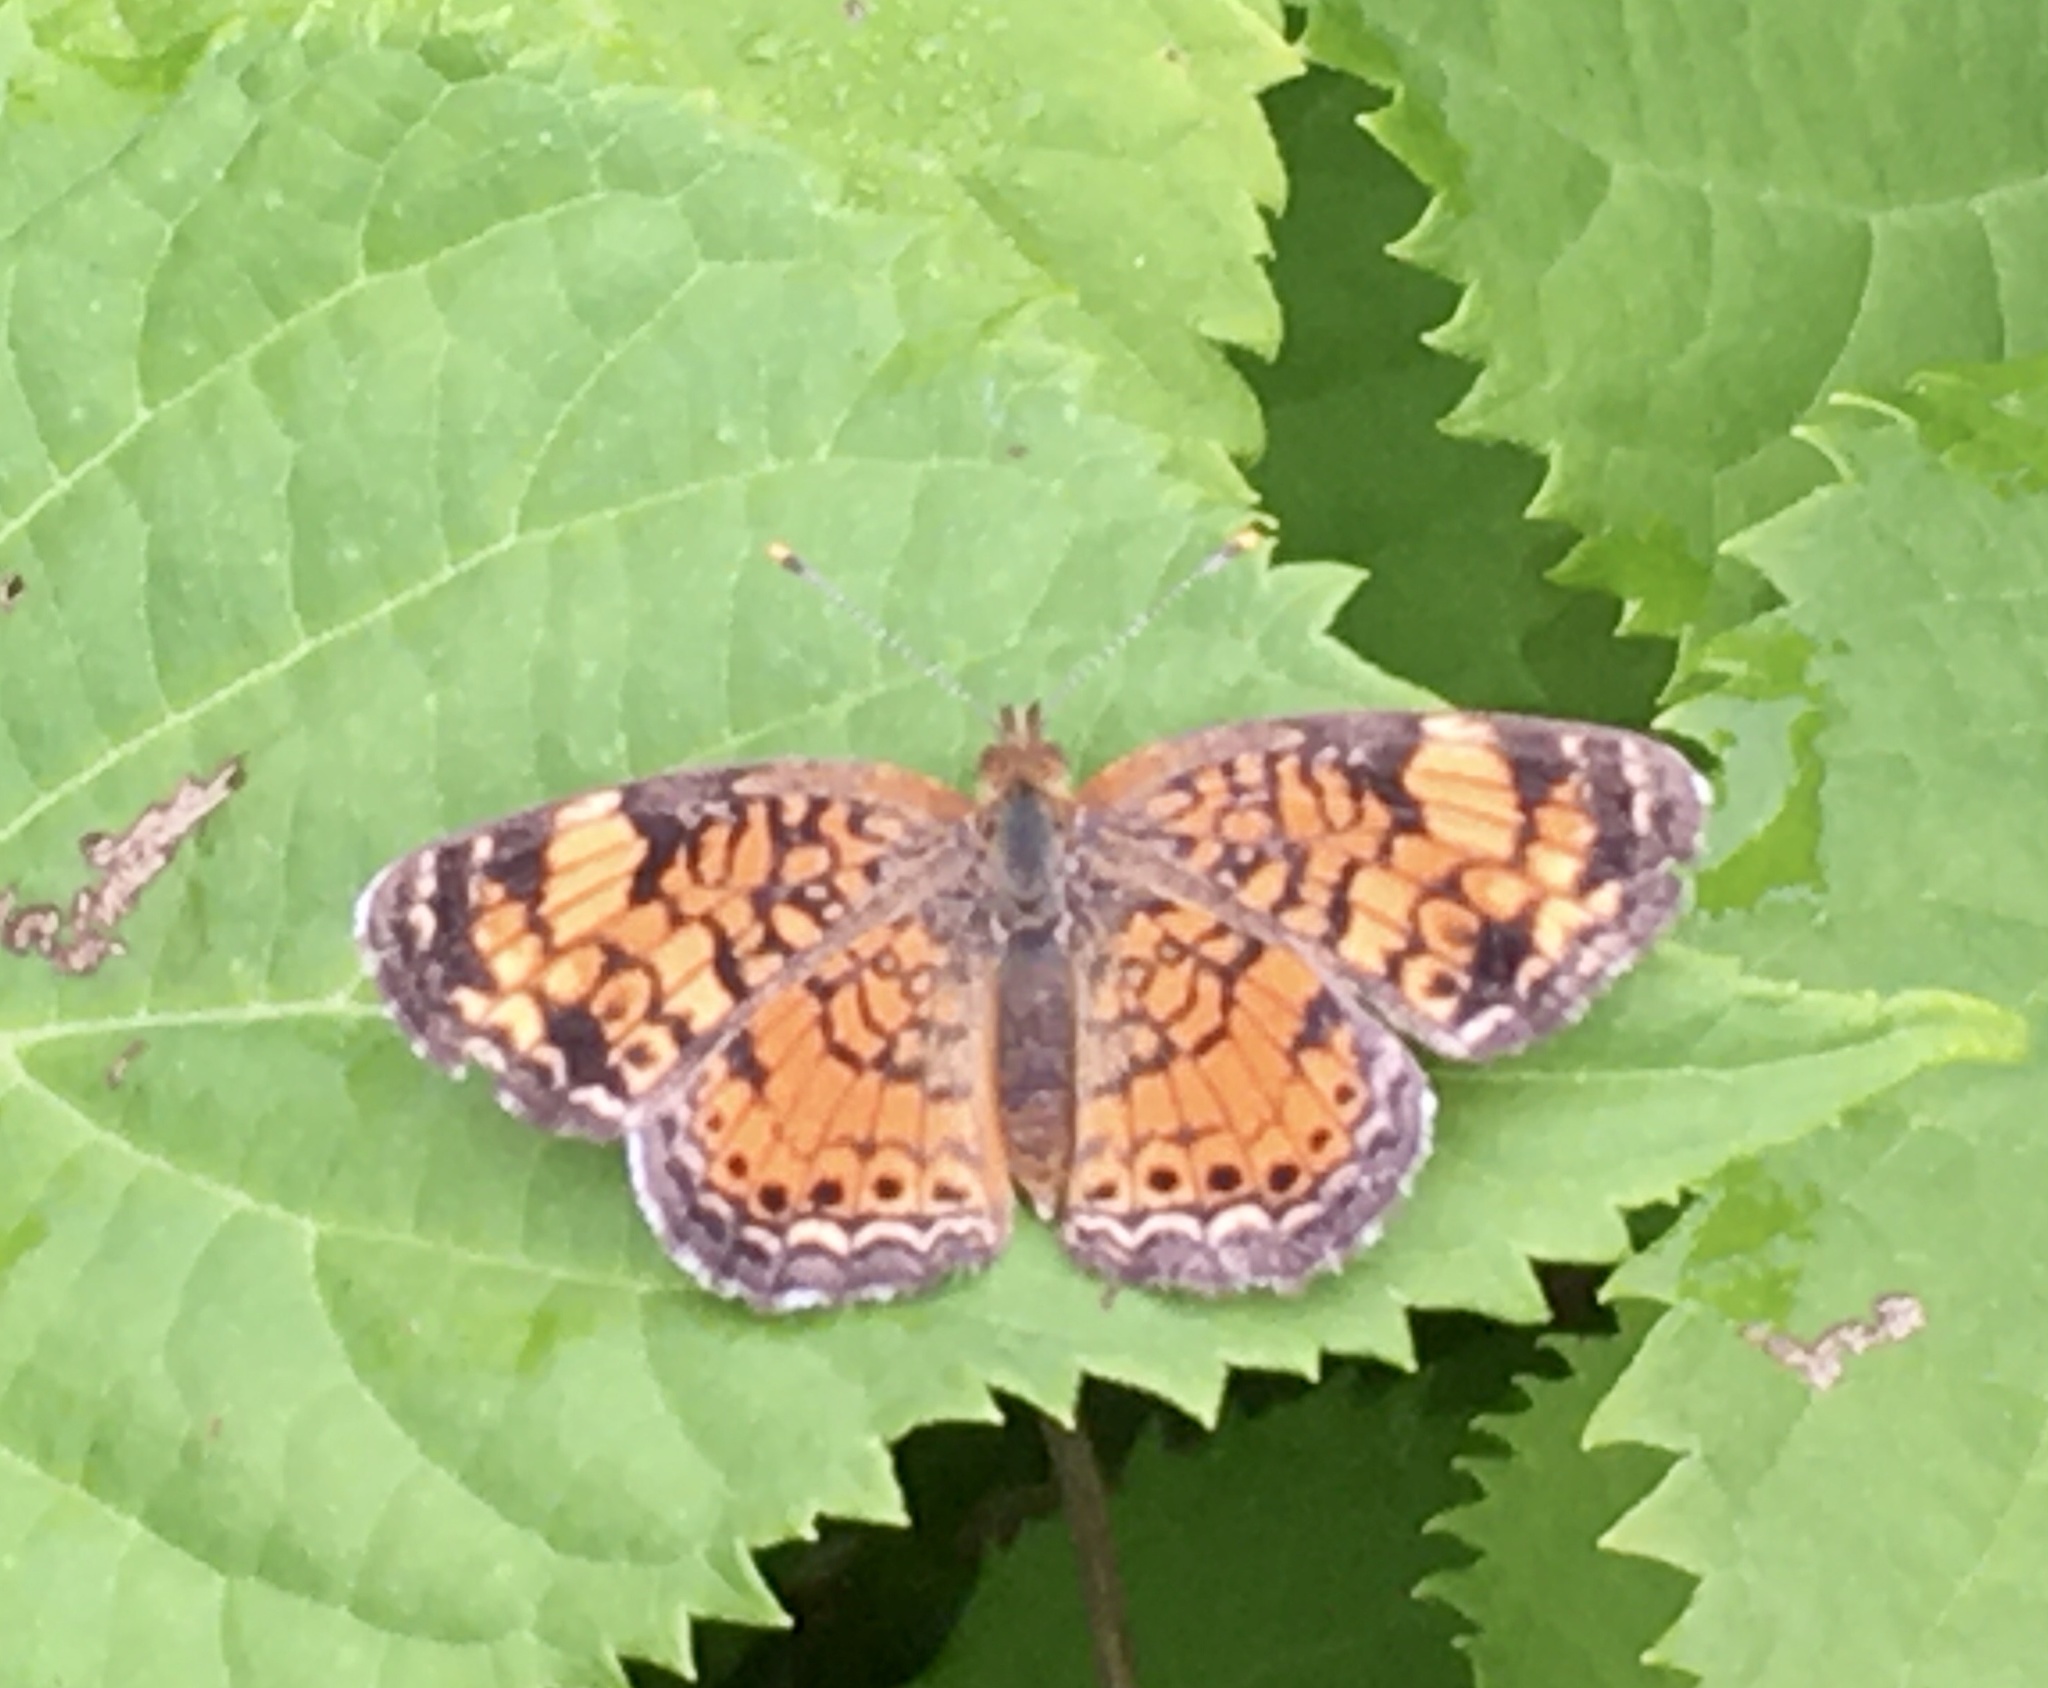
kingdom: Animalia
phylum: Arthropoda
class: Insecta
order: Lepidoptera
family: Nymphalidae
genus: Phyciodes
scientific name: Phyciodes tharos
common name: Pearl crescent
